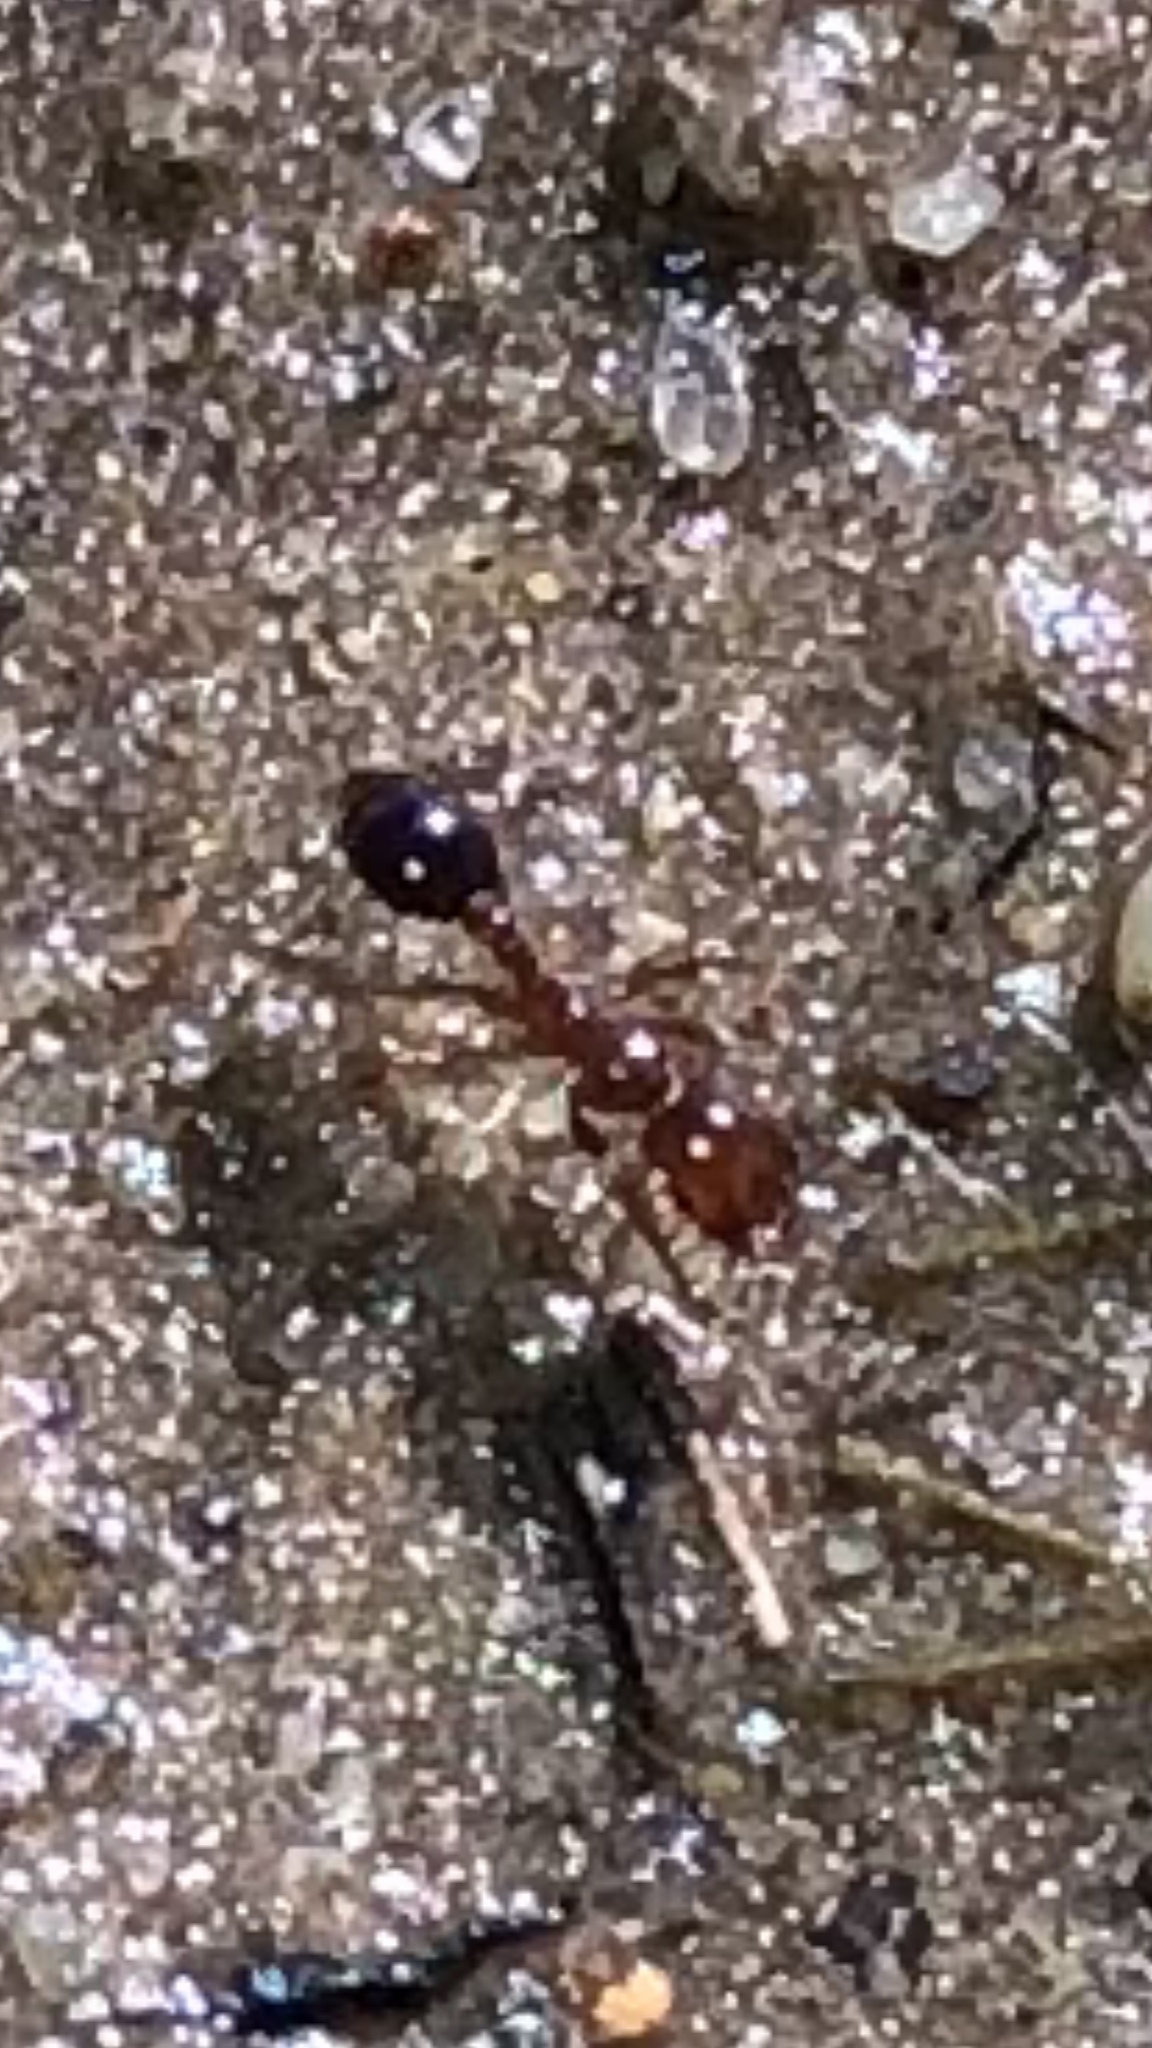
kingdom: Animalia
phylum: Arthropoda
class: Insecta
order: Hymenoptera
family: Formicidae
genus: Solenopsis
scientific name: Solenopsis invicta
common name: Red imported fire ant
